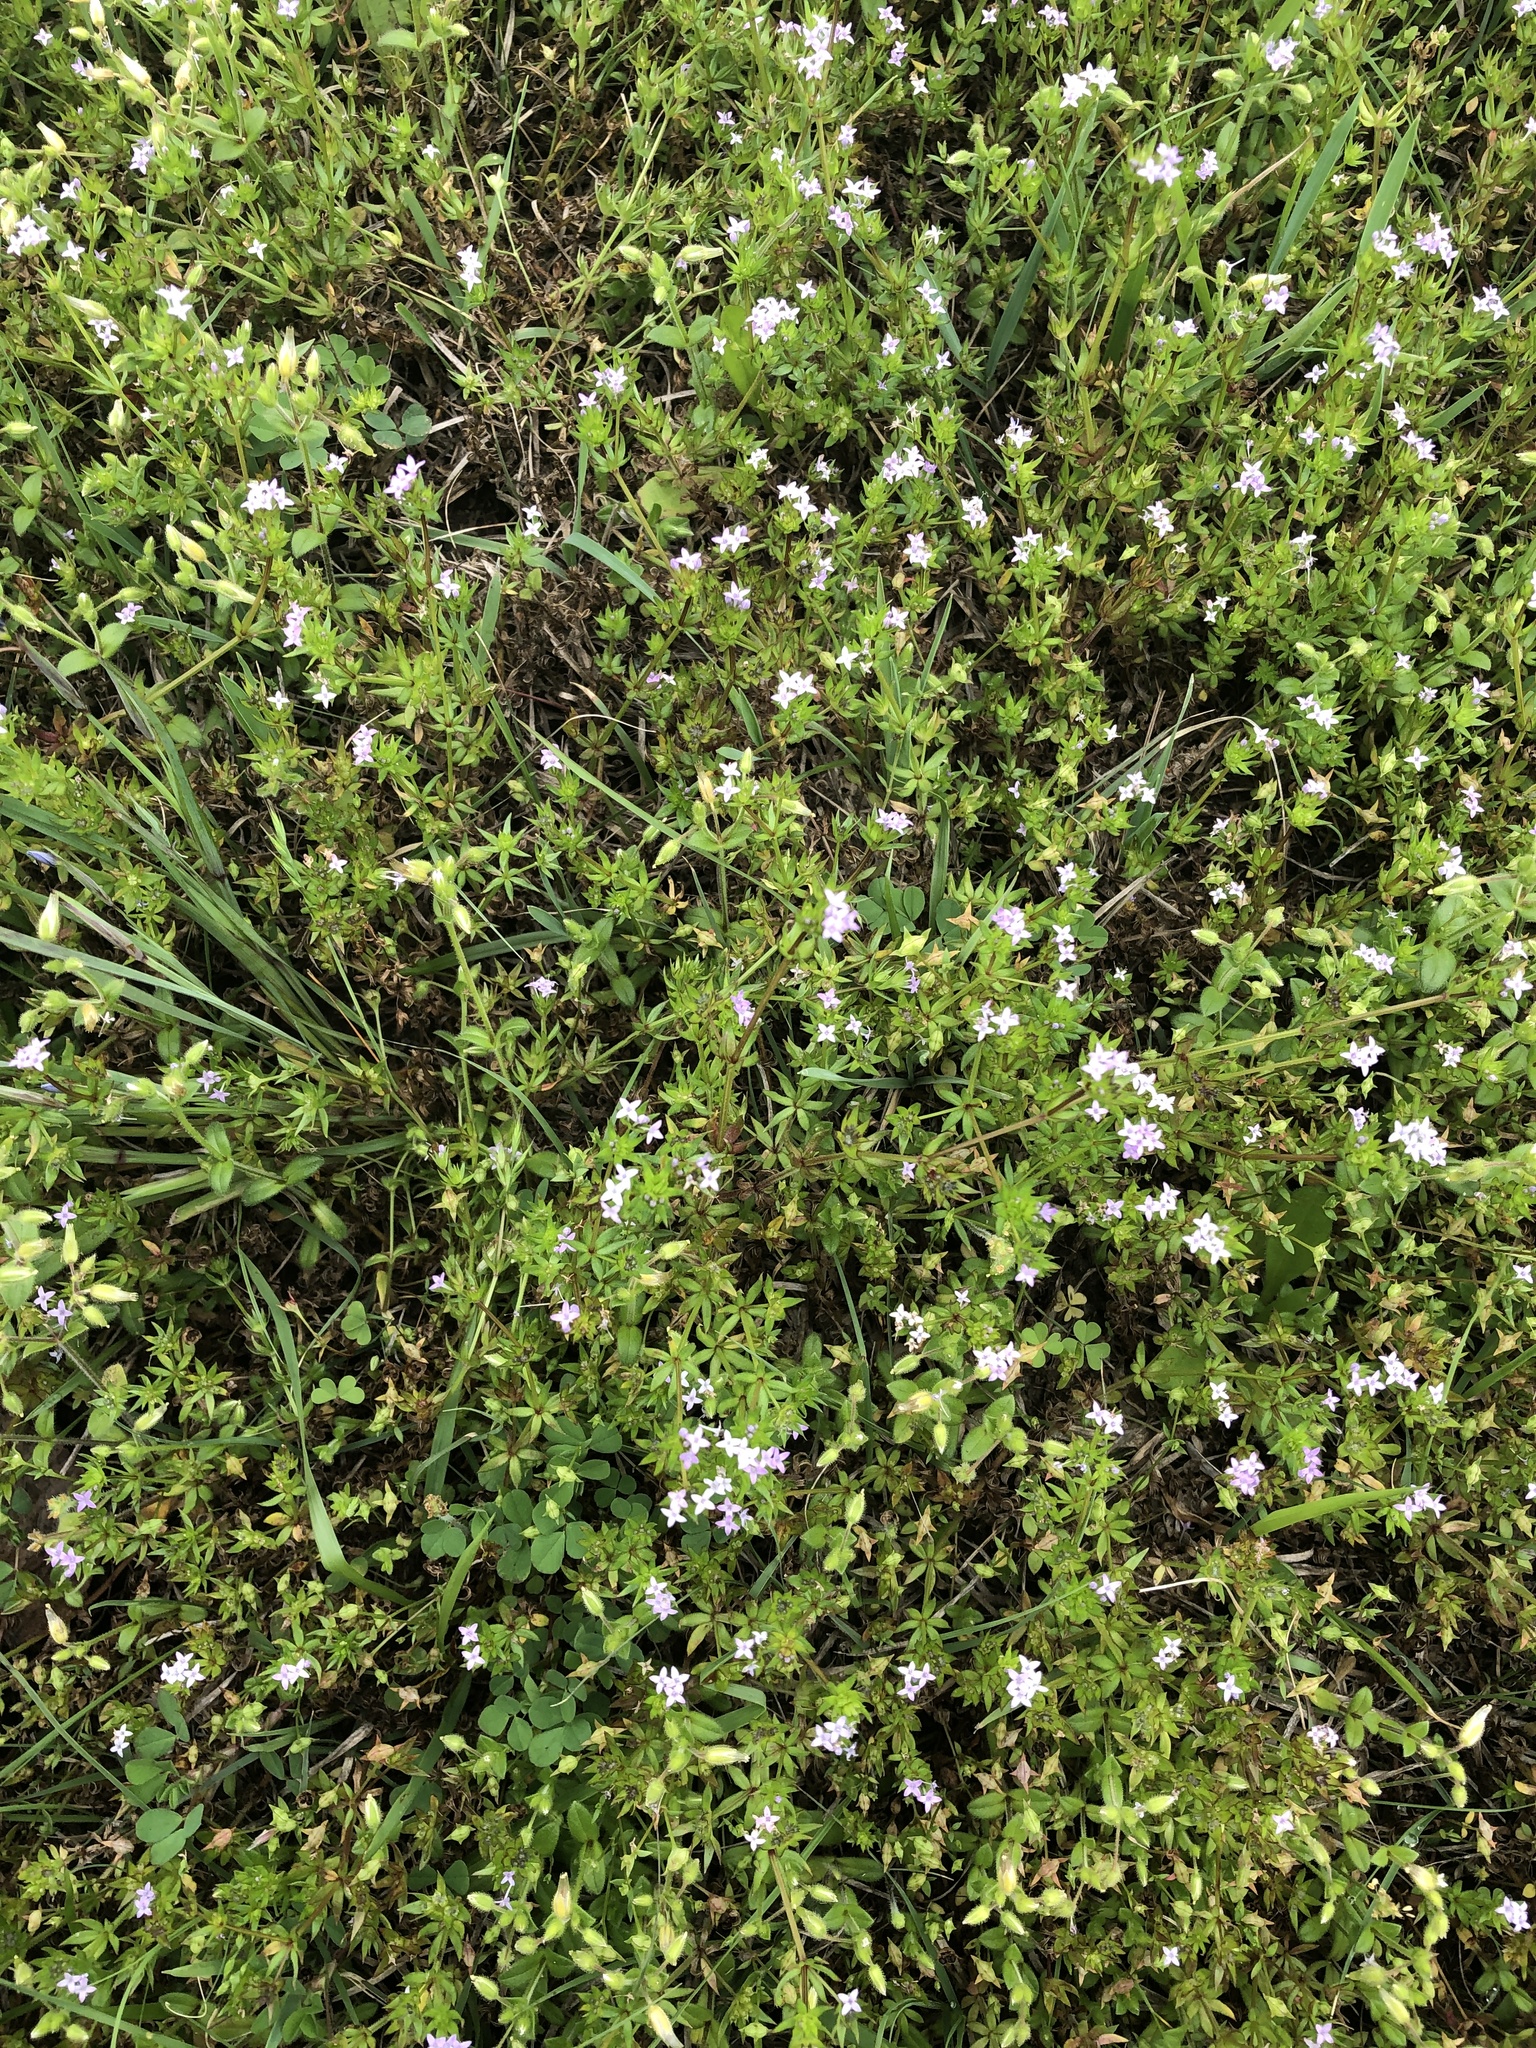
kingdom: Plantae
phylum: Tracheophyta
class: Magnoliopsida
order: Gentianales
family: Rubiaceae
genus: Sherardia
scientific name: Sherardia arvensis
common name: Field madder
